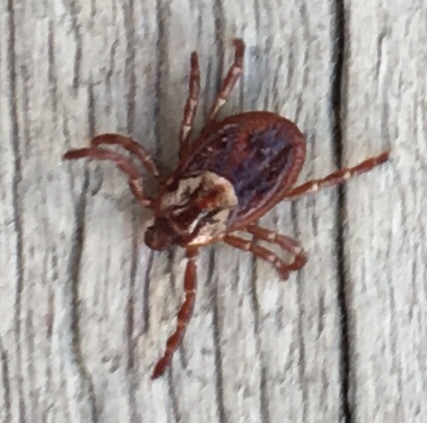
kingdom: Animalia
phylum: Arthropoda
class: Arachnida
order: Ixodida
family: Ixodidae
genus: Dermacentor
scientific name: Dermacentor variabilis
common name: American dog tick
